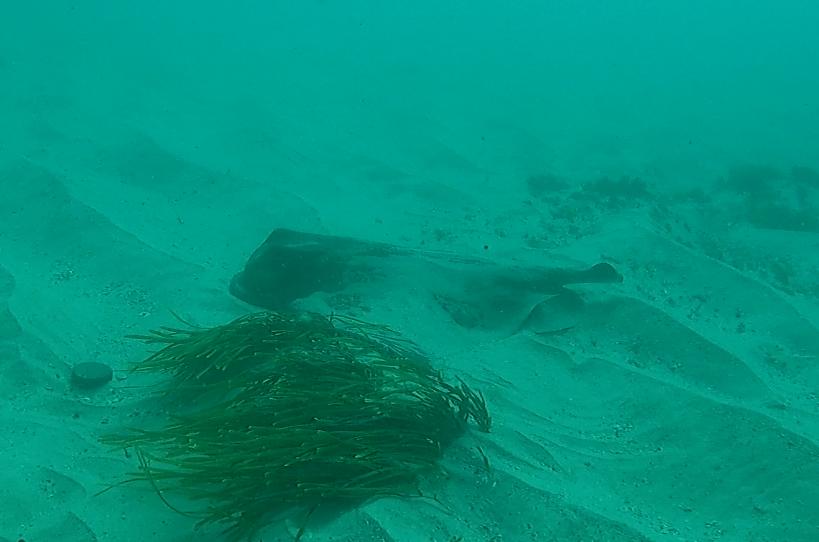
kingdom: Animalia
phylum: Chordata
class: Elasmobranchii
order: Myliobatiformes
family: Myliobatidae
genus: Myliobatis
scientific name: Myliobatis tenuicaudatus
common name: Eagle ray
